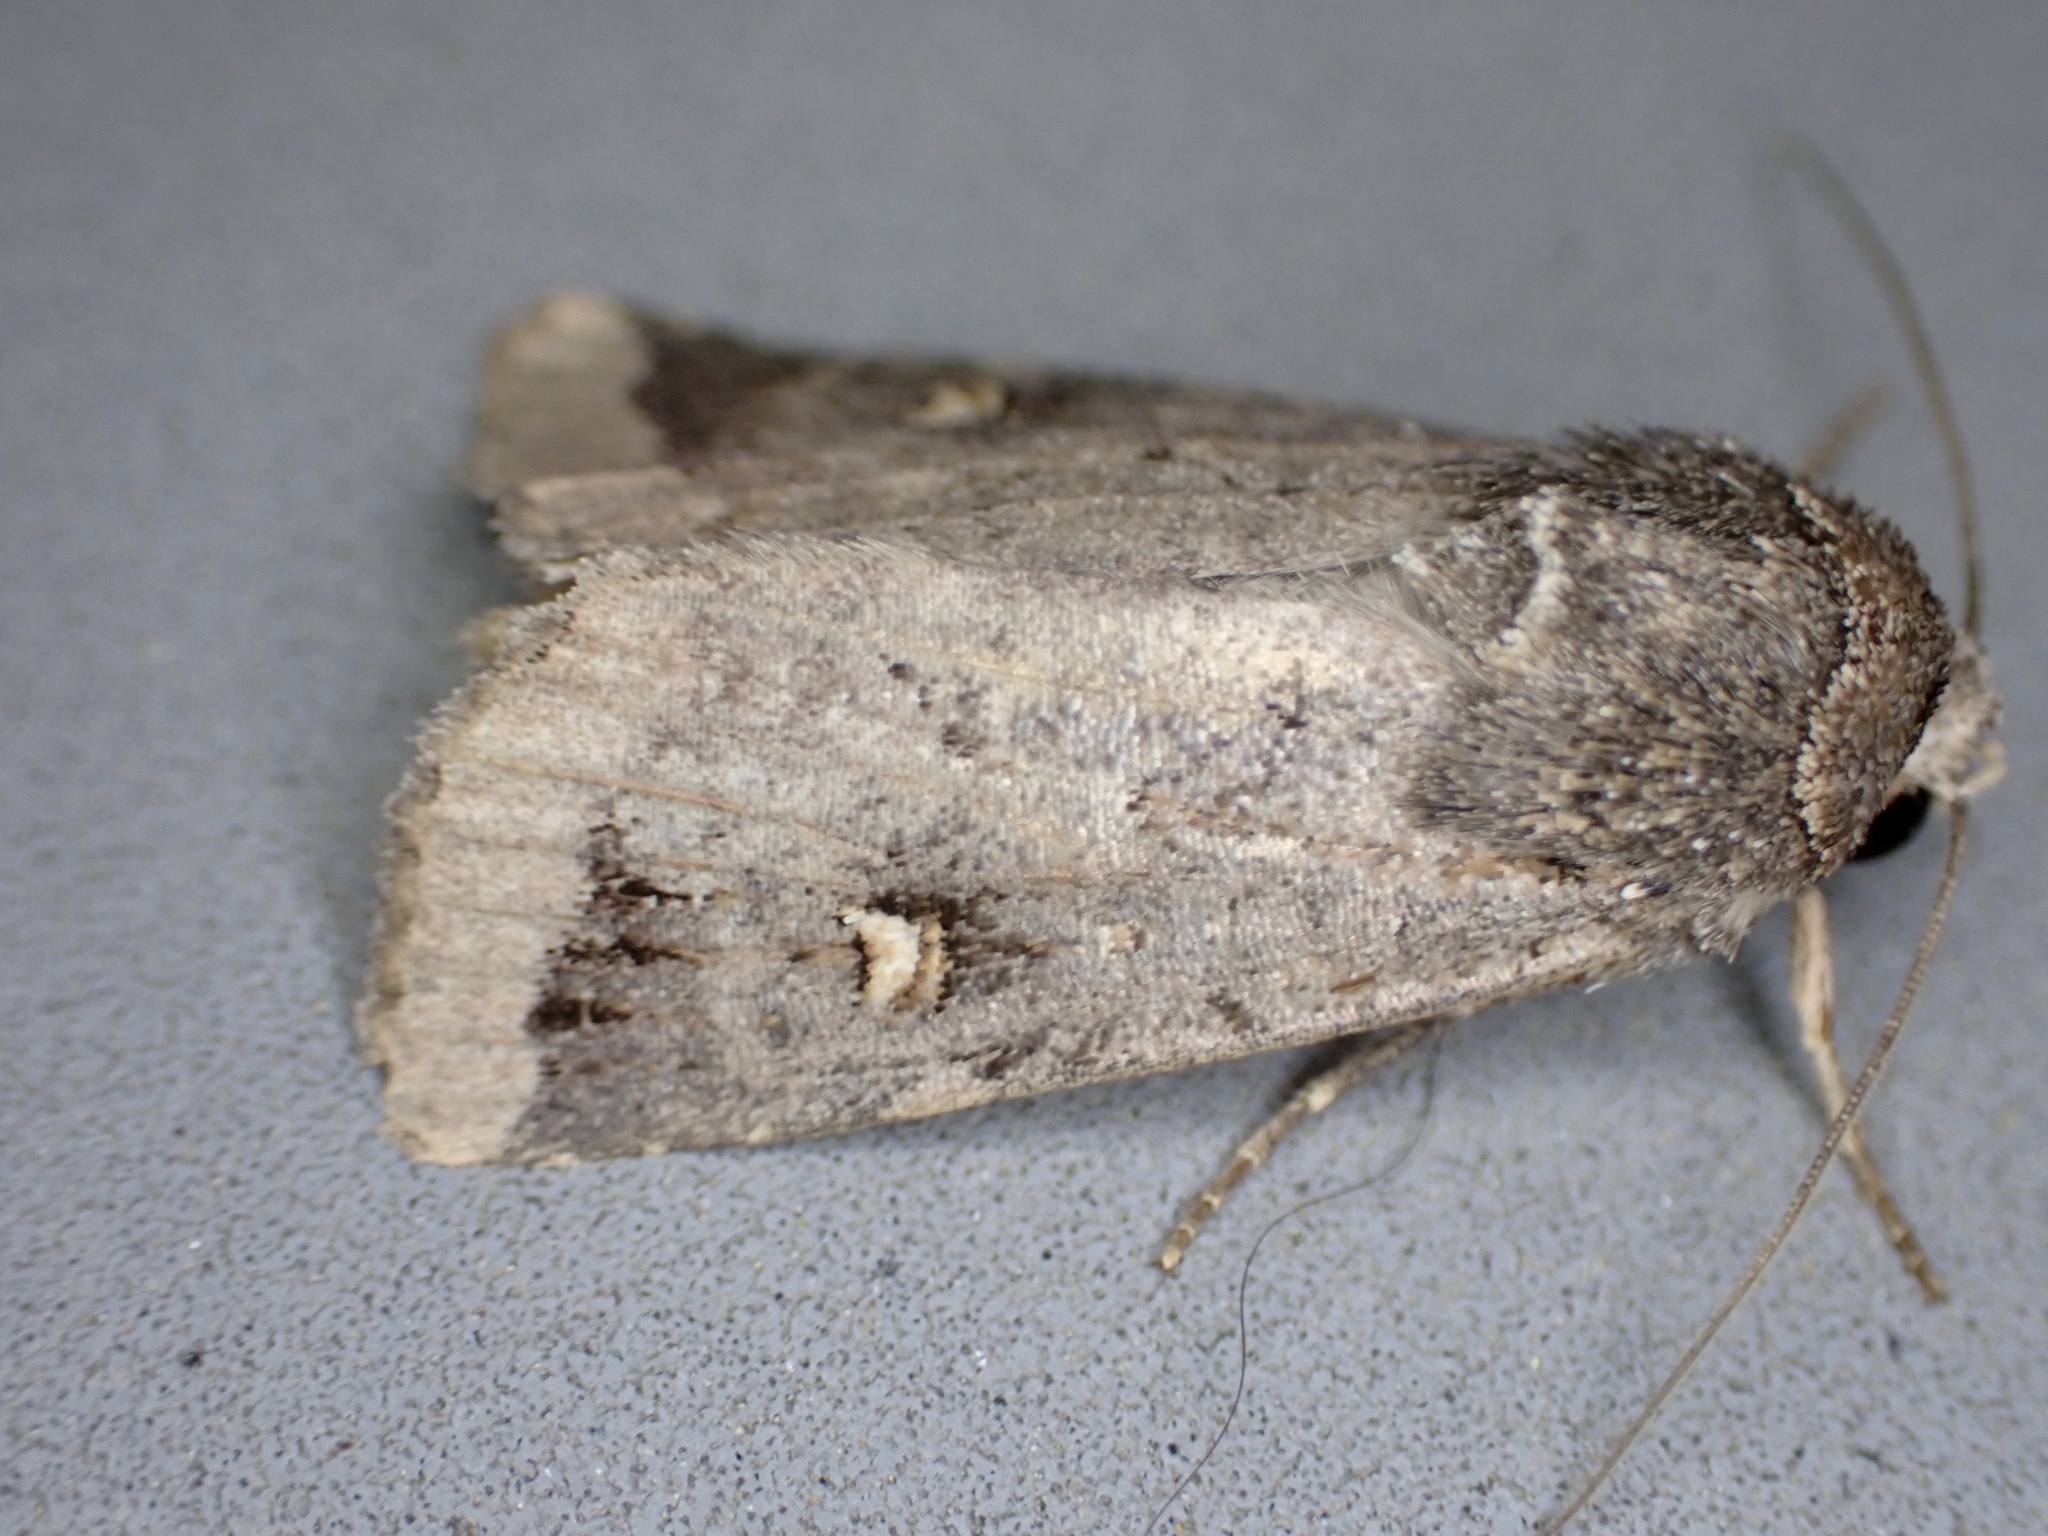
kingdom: Animalia
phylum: Arthropoda
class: Insecta
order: Lepidoptera
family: Noctuidae
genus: Proteuxoa
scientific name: Proteuxoa tetronycha
